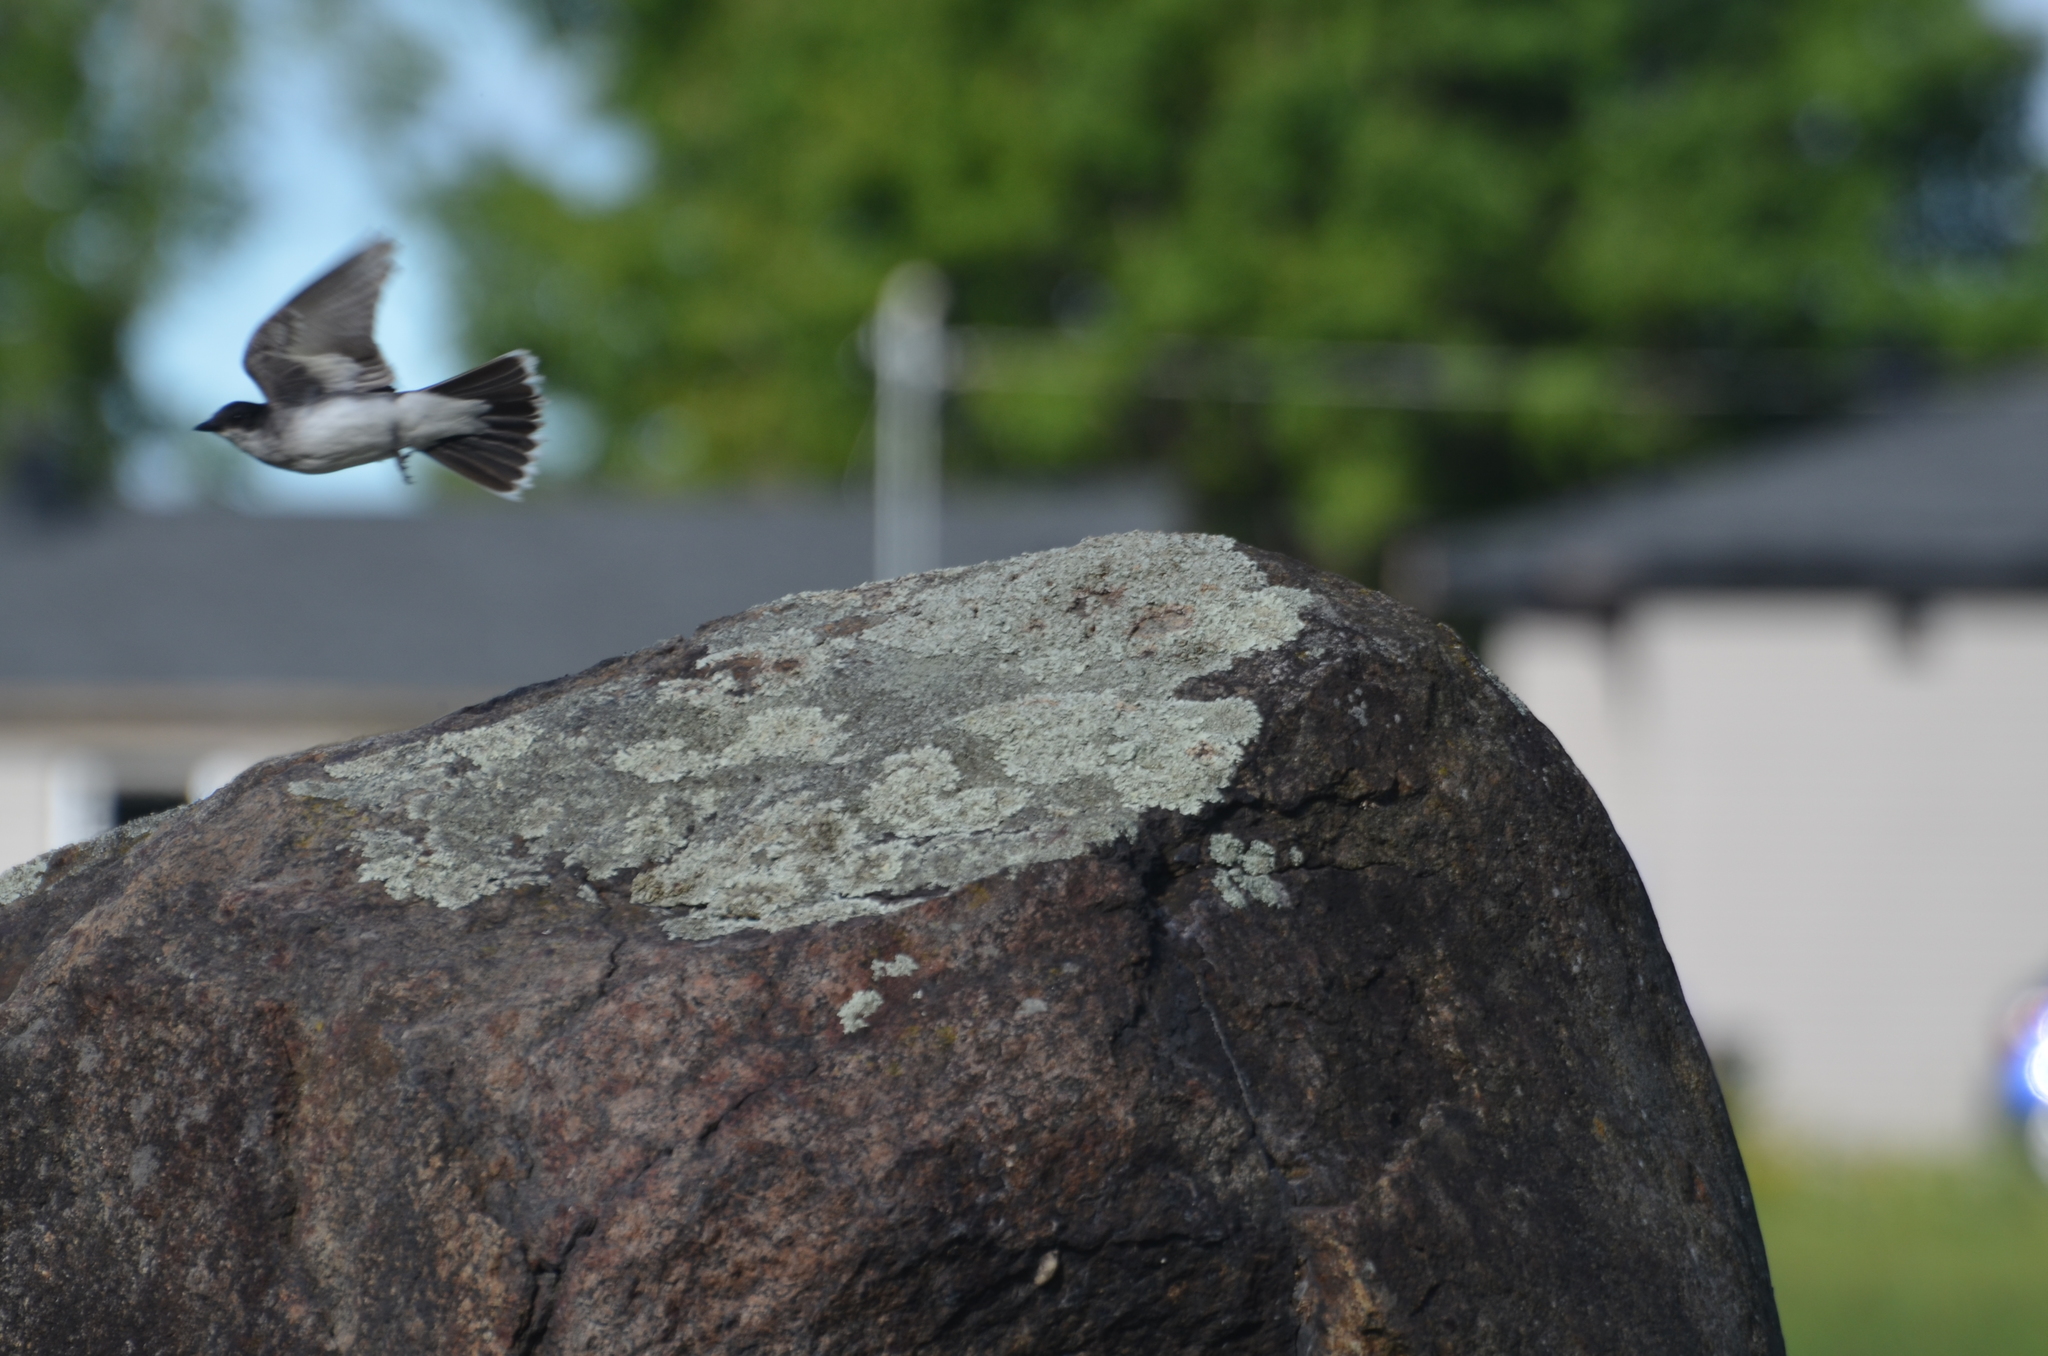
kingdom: Animalia
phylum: Chordata
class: Aves
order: Passeriformes
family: Tyrannidae
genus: Tyrannus
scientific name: Tyrannus tyrannus
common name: Eastern kingbird
